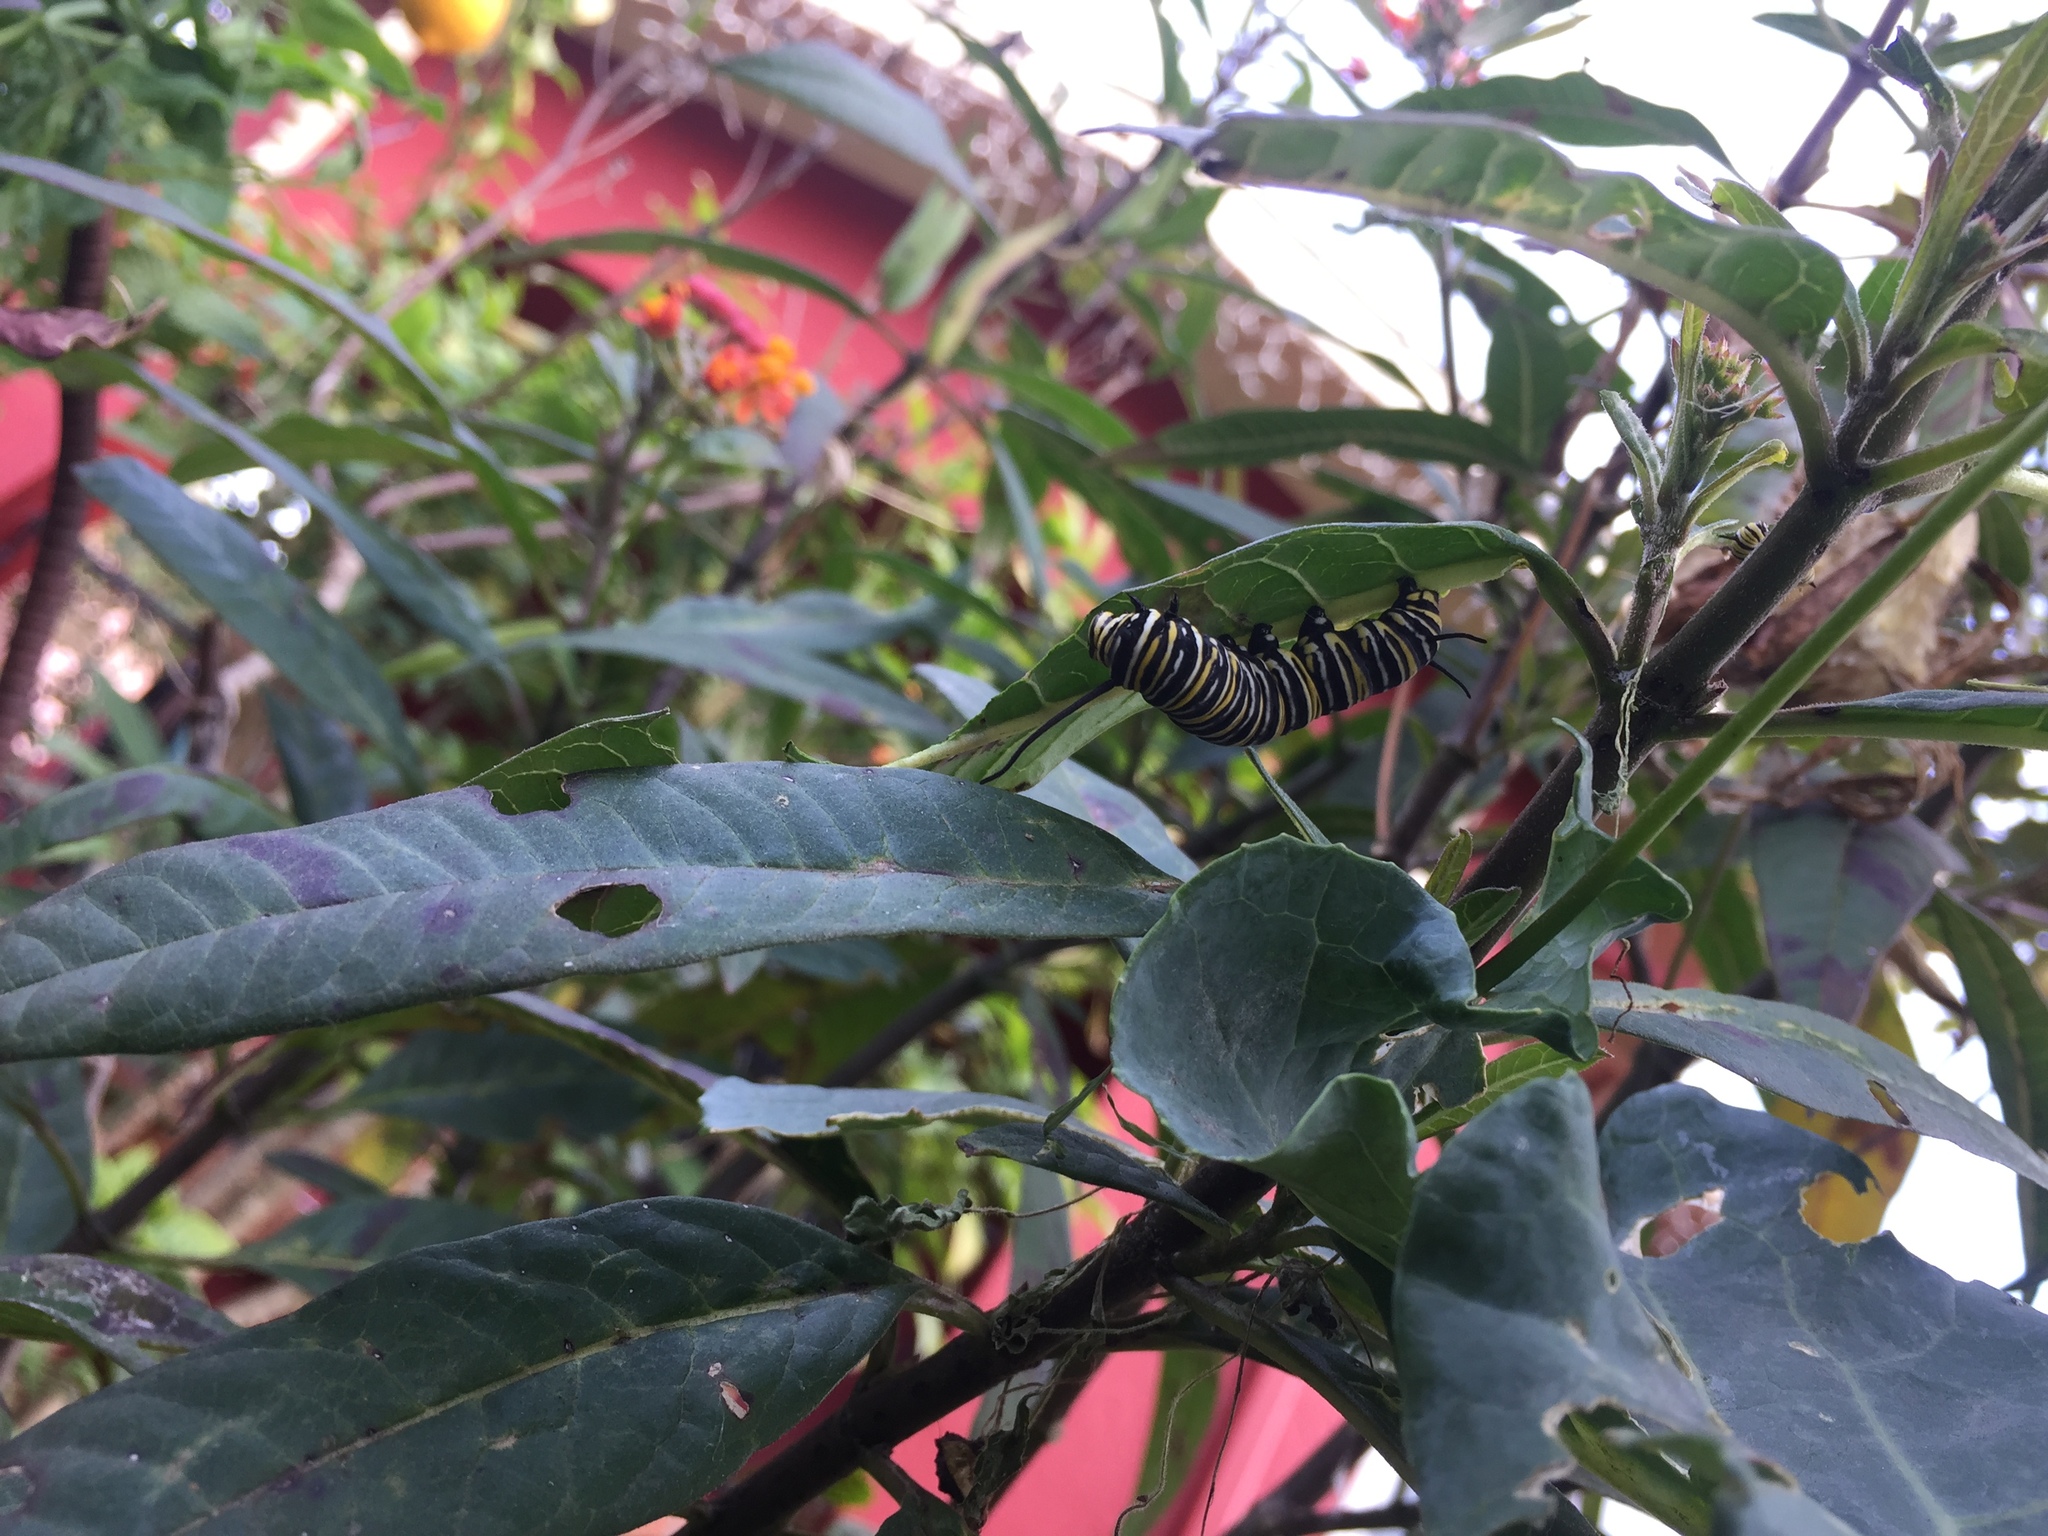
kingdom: Animalia
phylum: Arthropoda
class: Insecta
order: Lepidoptera
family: Nymphalidae
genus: Danaus
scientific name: Danaus plexippus
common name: Monarch
